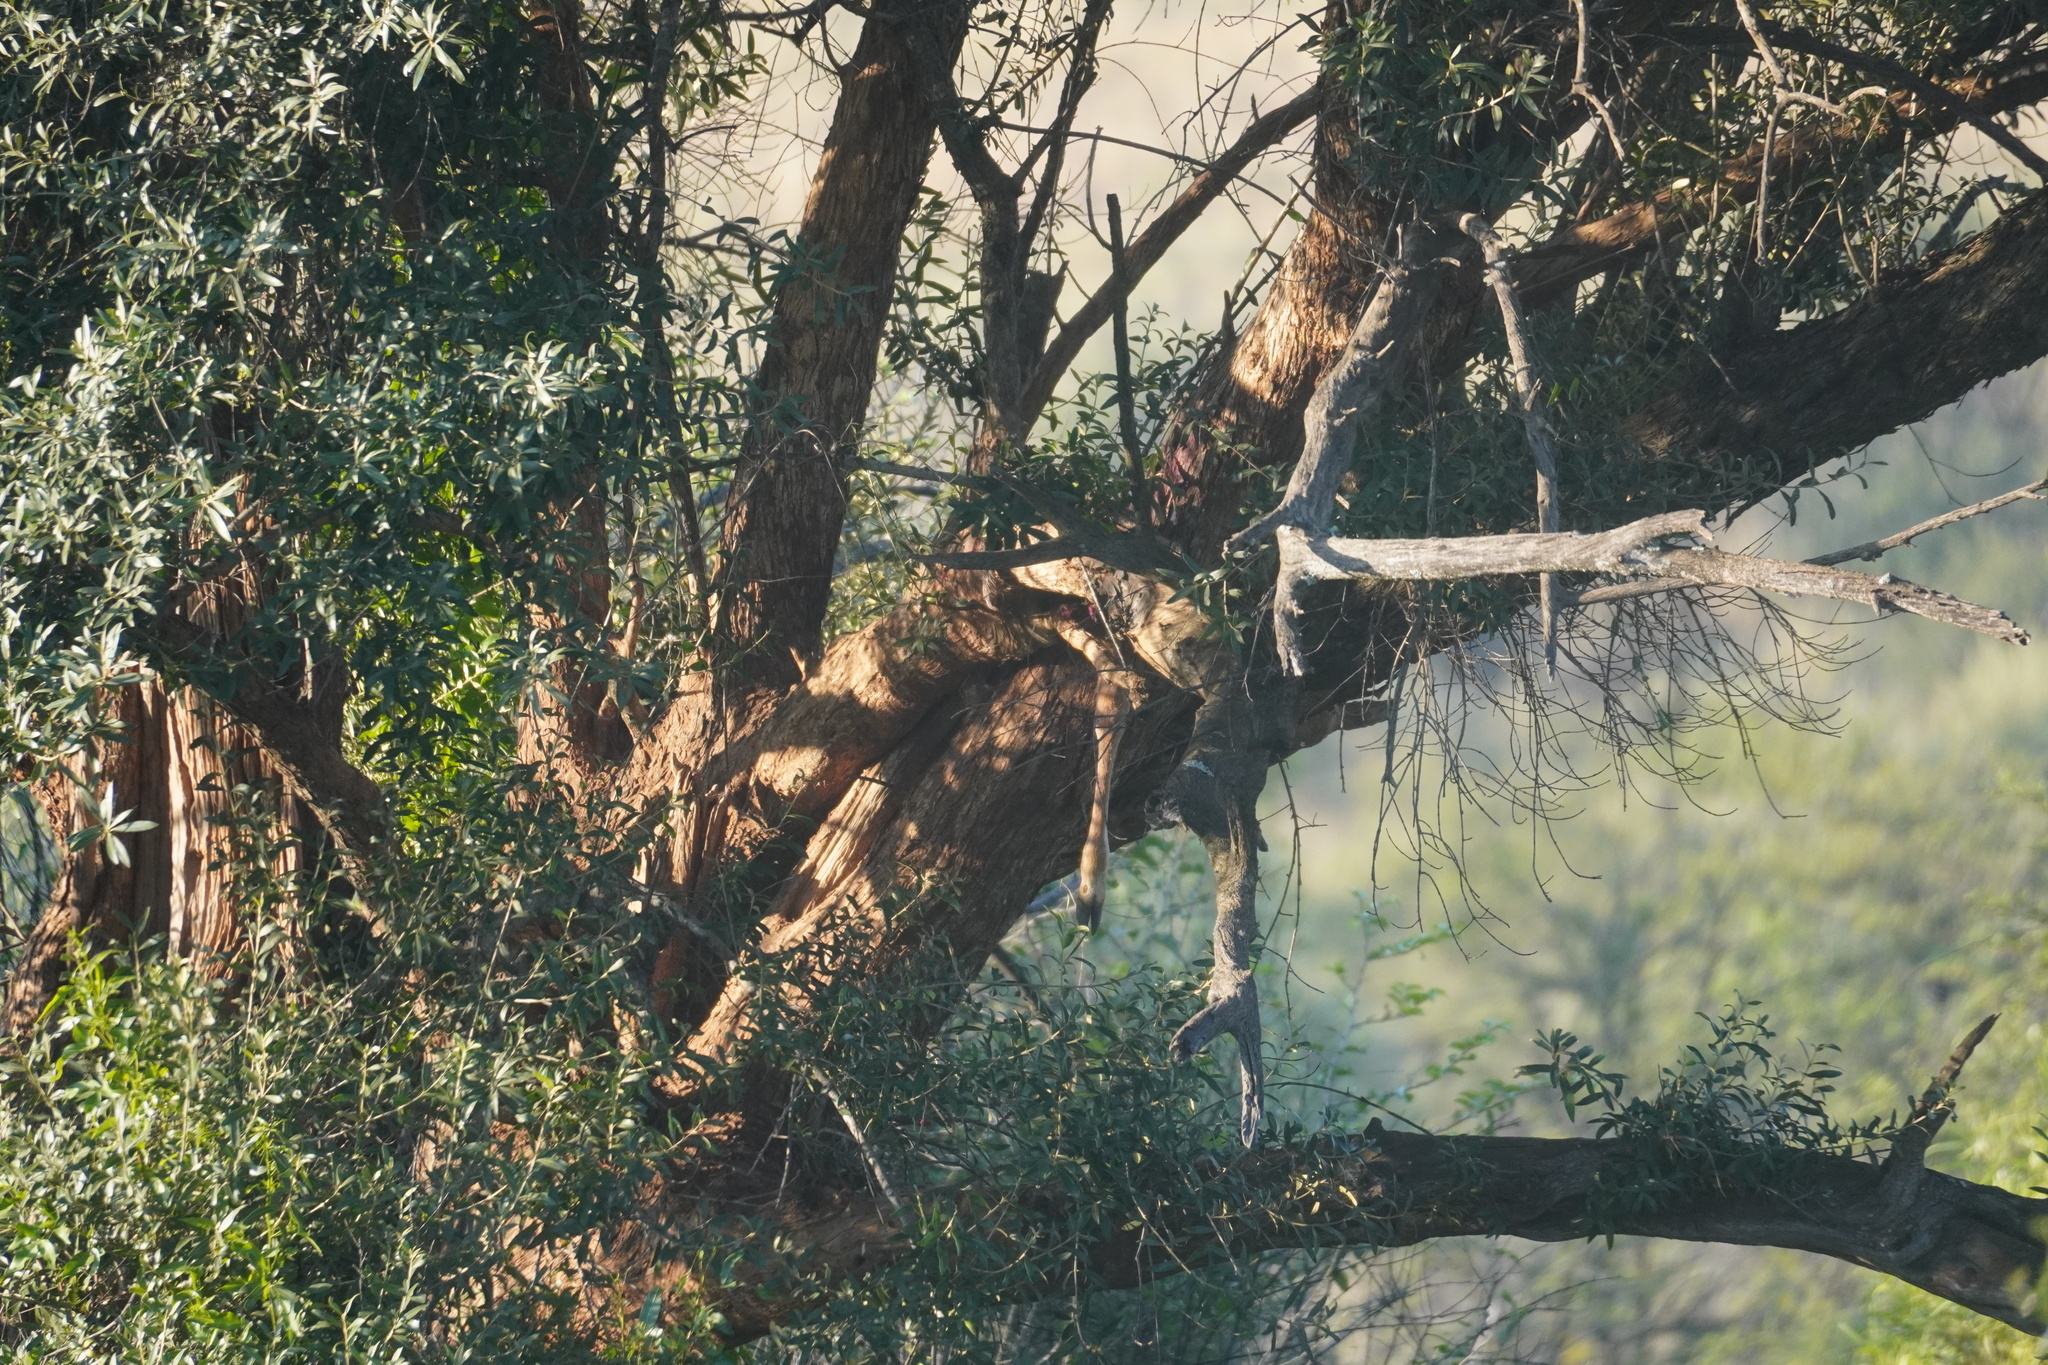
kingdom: Animalia
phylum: Chordata
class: Mammalia
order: Carnivora
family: Felidae
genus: Panthera
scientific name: Panthera pardus
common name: Leopard
